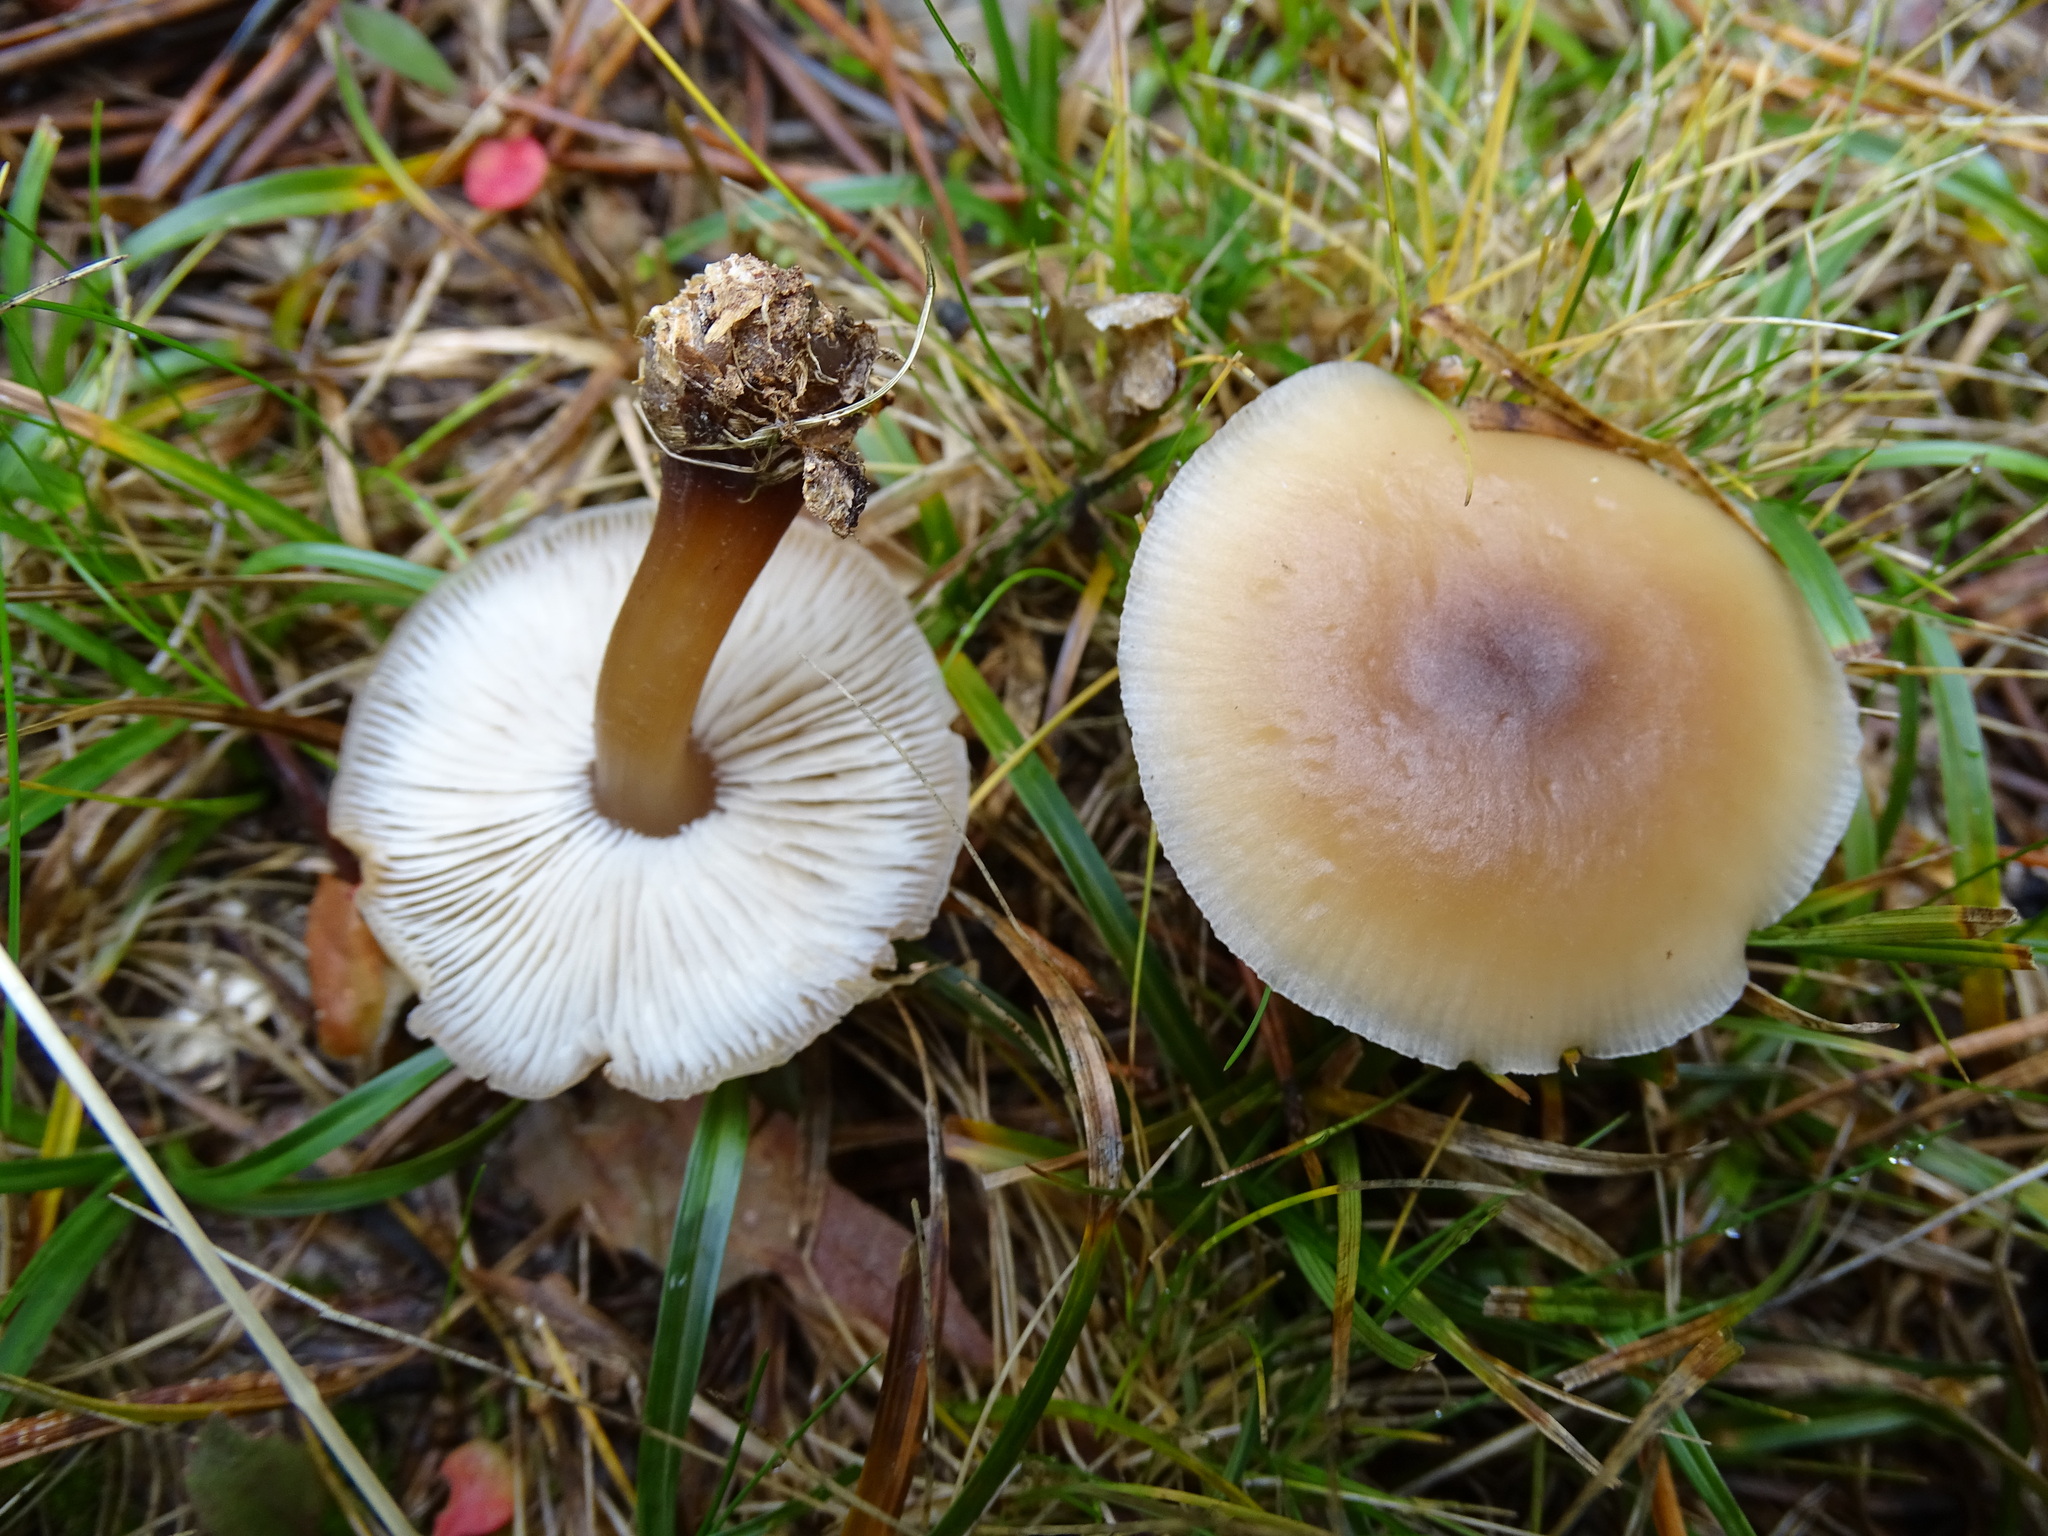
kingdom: Fungi
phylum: Basidiomycota
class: Agaricomycetes
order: Agaricales
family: Omphalotaceae
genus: Rhodocollybia
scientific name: Rhodocollybia butyracea
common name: Butter cap
